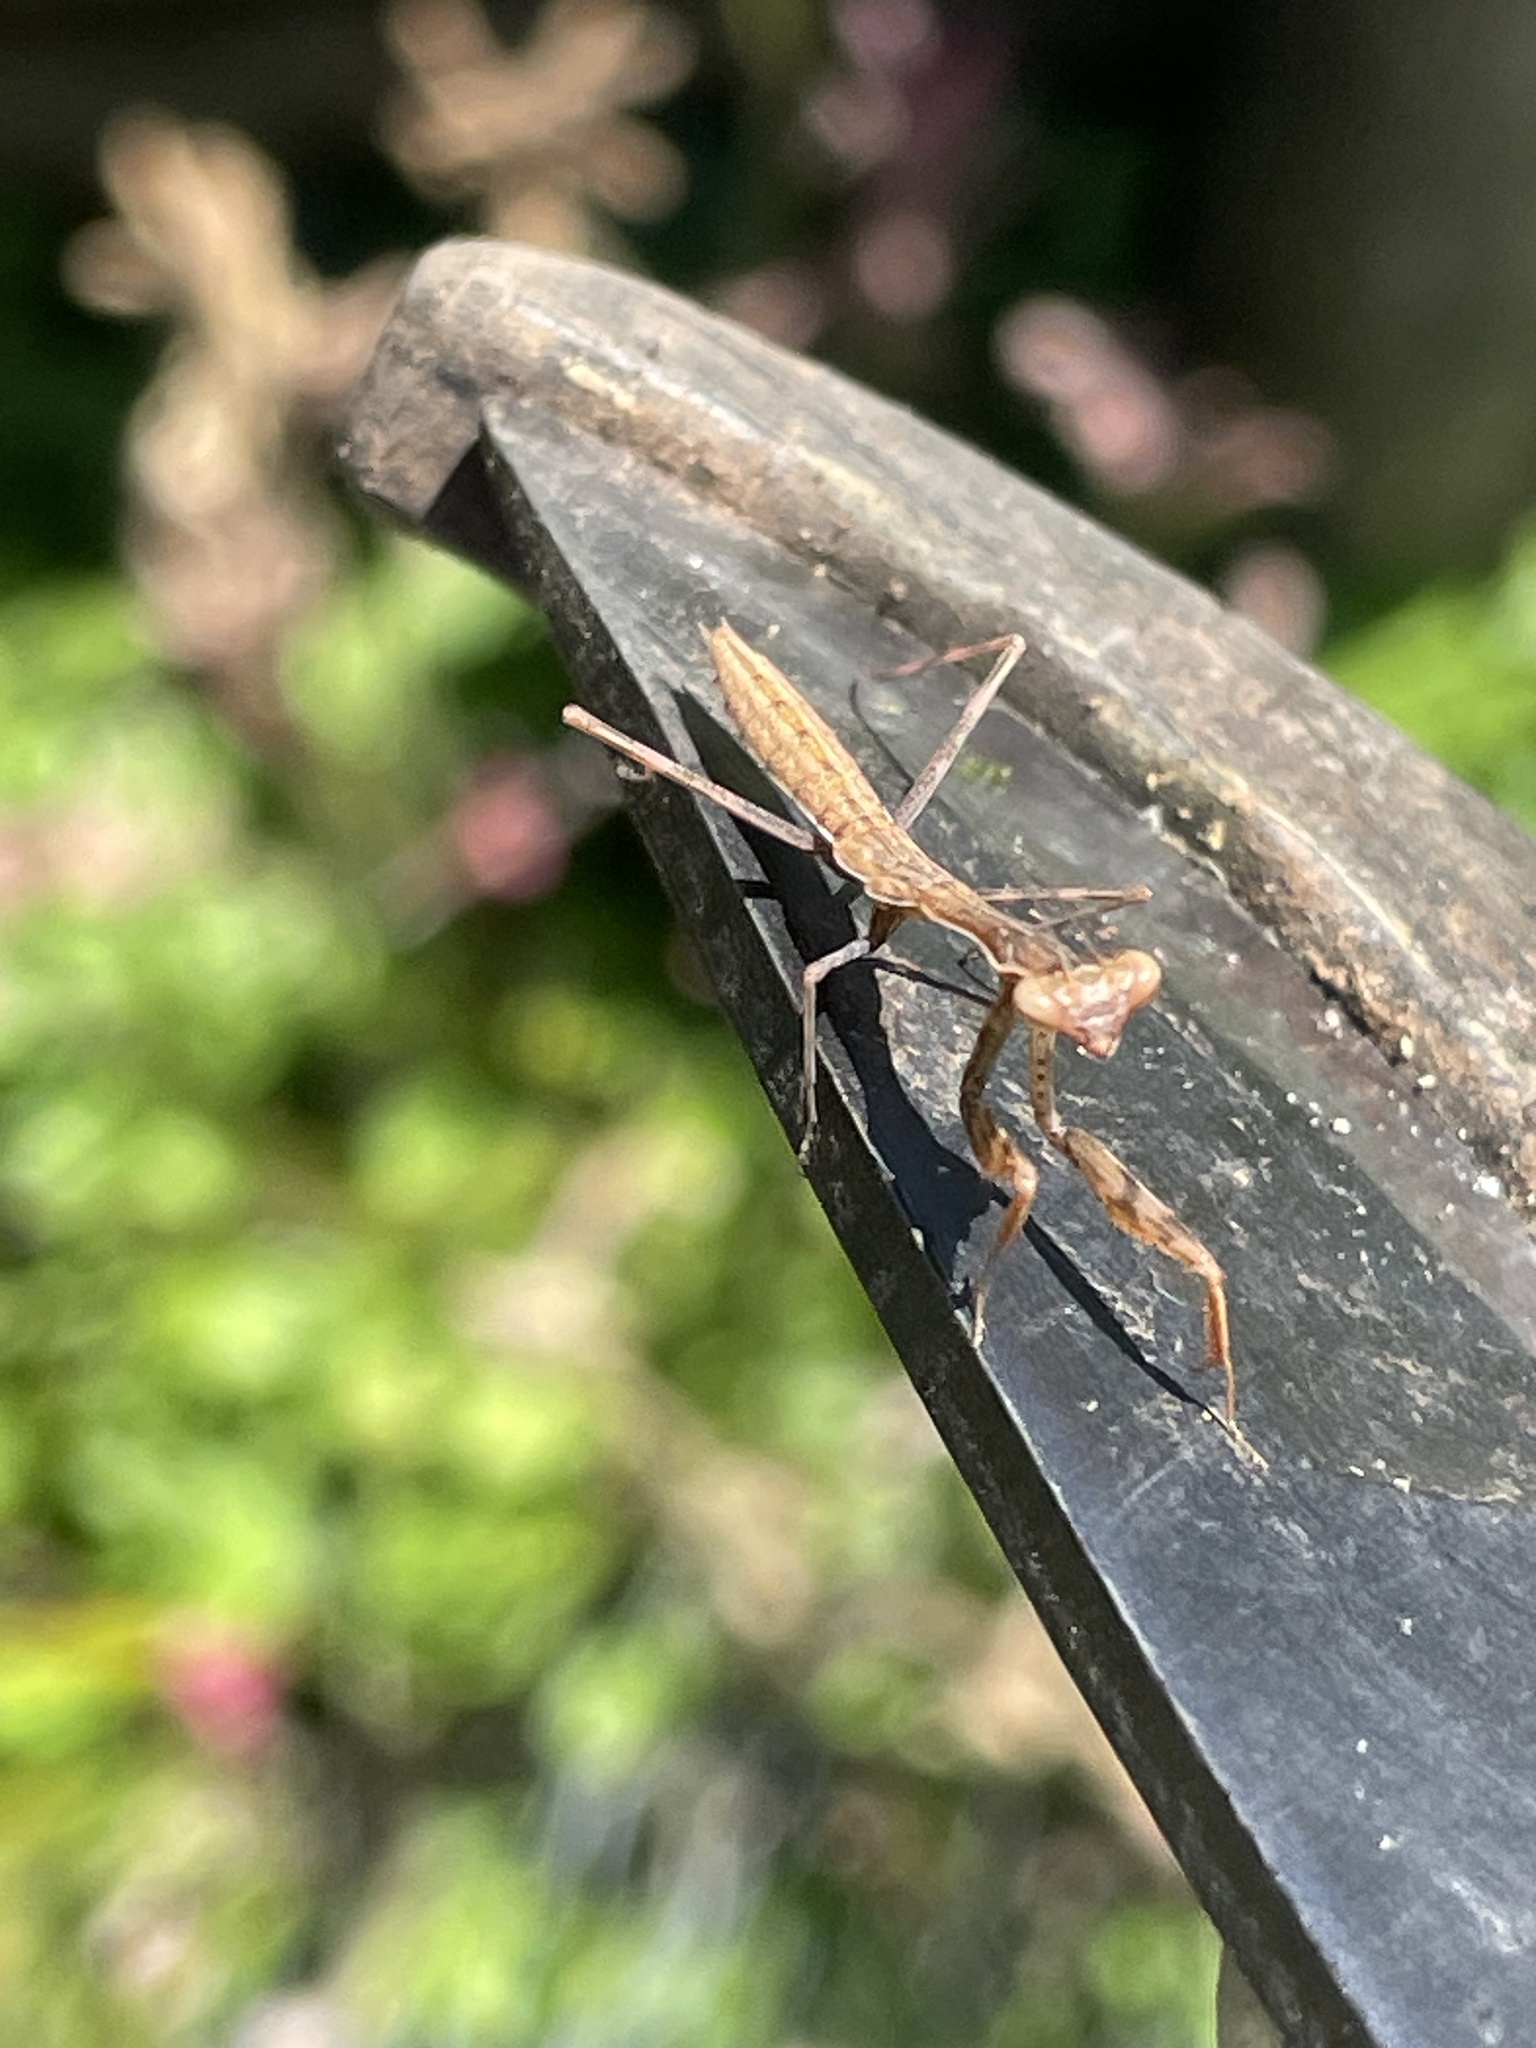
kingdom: Animalia
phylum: Arthropoda
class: Insecta
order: Mantodea
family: Miomantidae
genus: Miomantis
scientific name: Miomantis caffra
